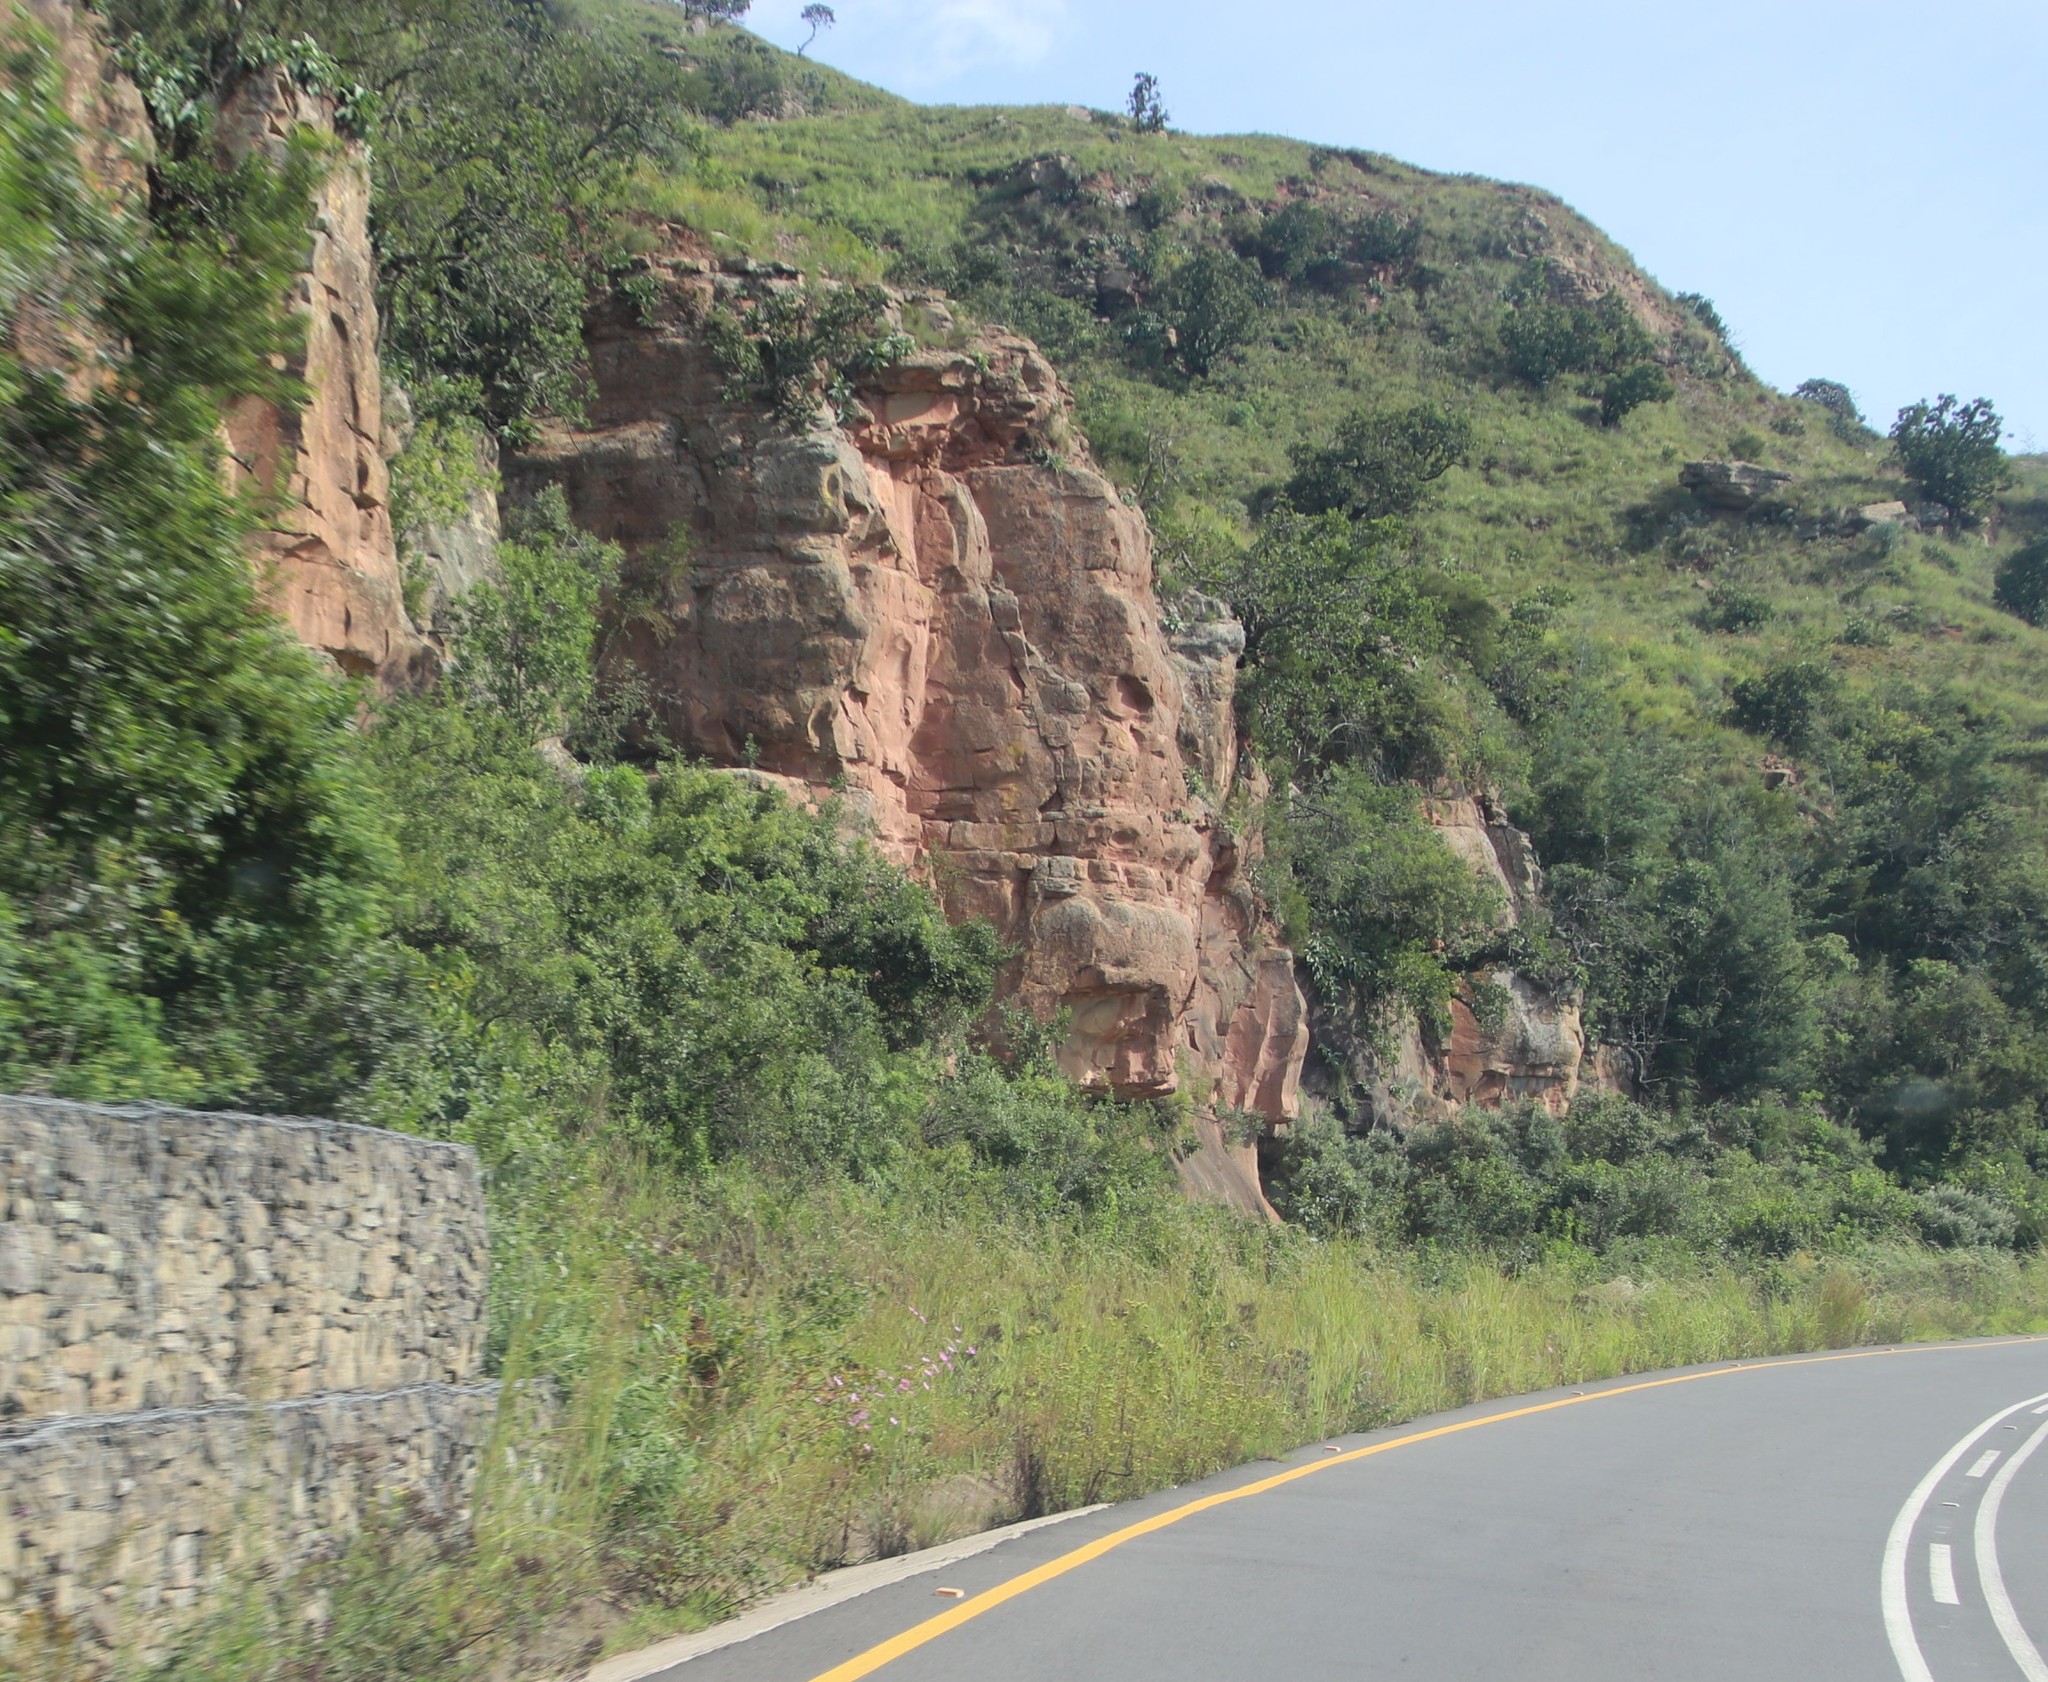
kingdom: Plantae
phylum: Tracheophyta
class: Magnoliopsida
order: Asterales
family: Asteraceae
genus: Cosmos
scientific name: Cosmos bipinnatus
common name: Garden cosmos
